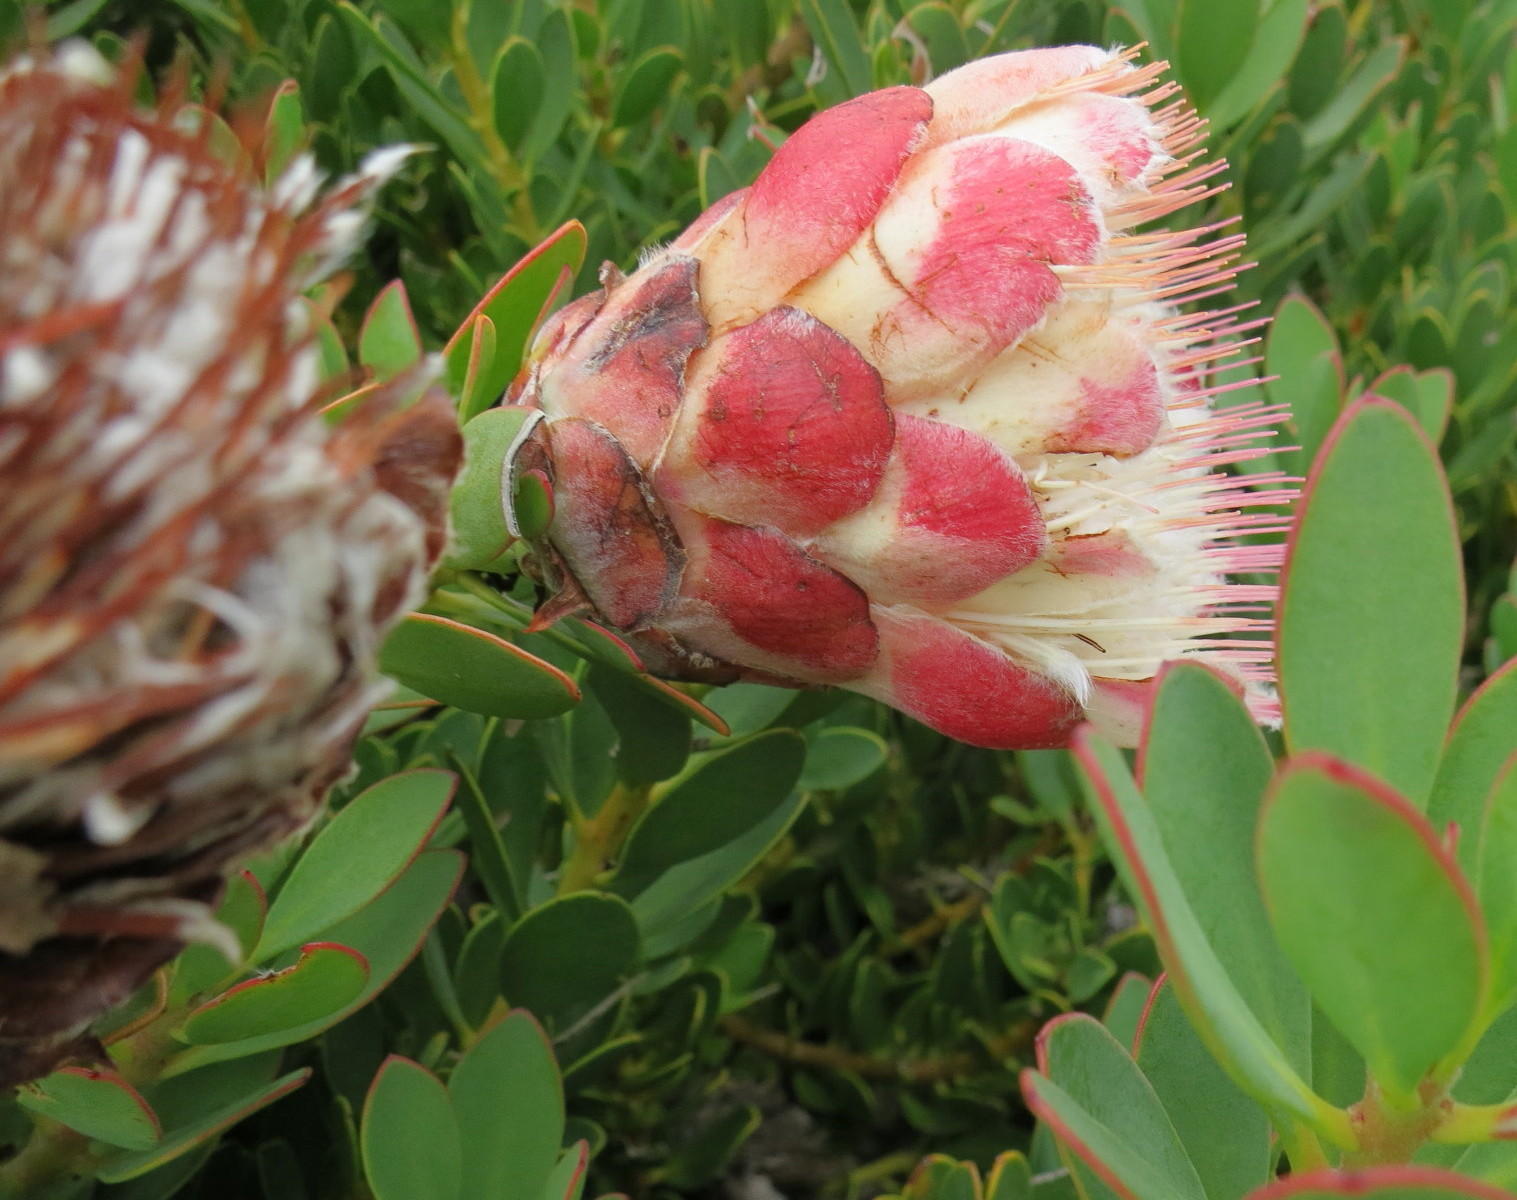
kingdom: Plantae
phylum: Tracheophyta
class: Magnoliopsida
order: Proteales
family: Proteaceae
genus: Protea
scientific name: Protea venusta
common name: Cascade sugarbush
